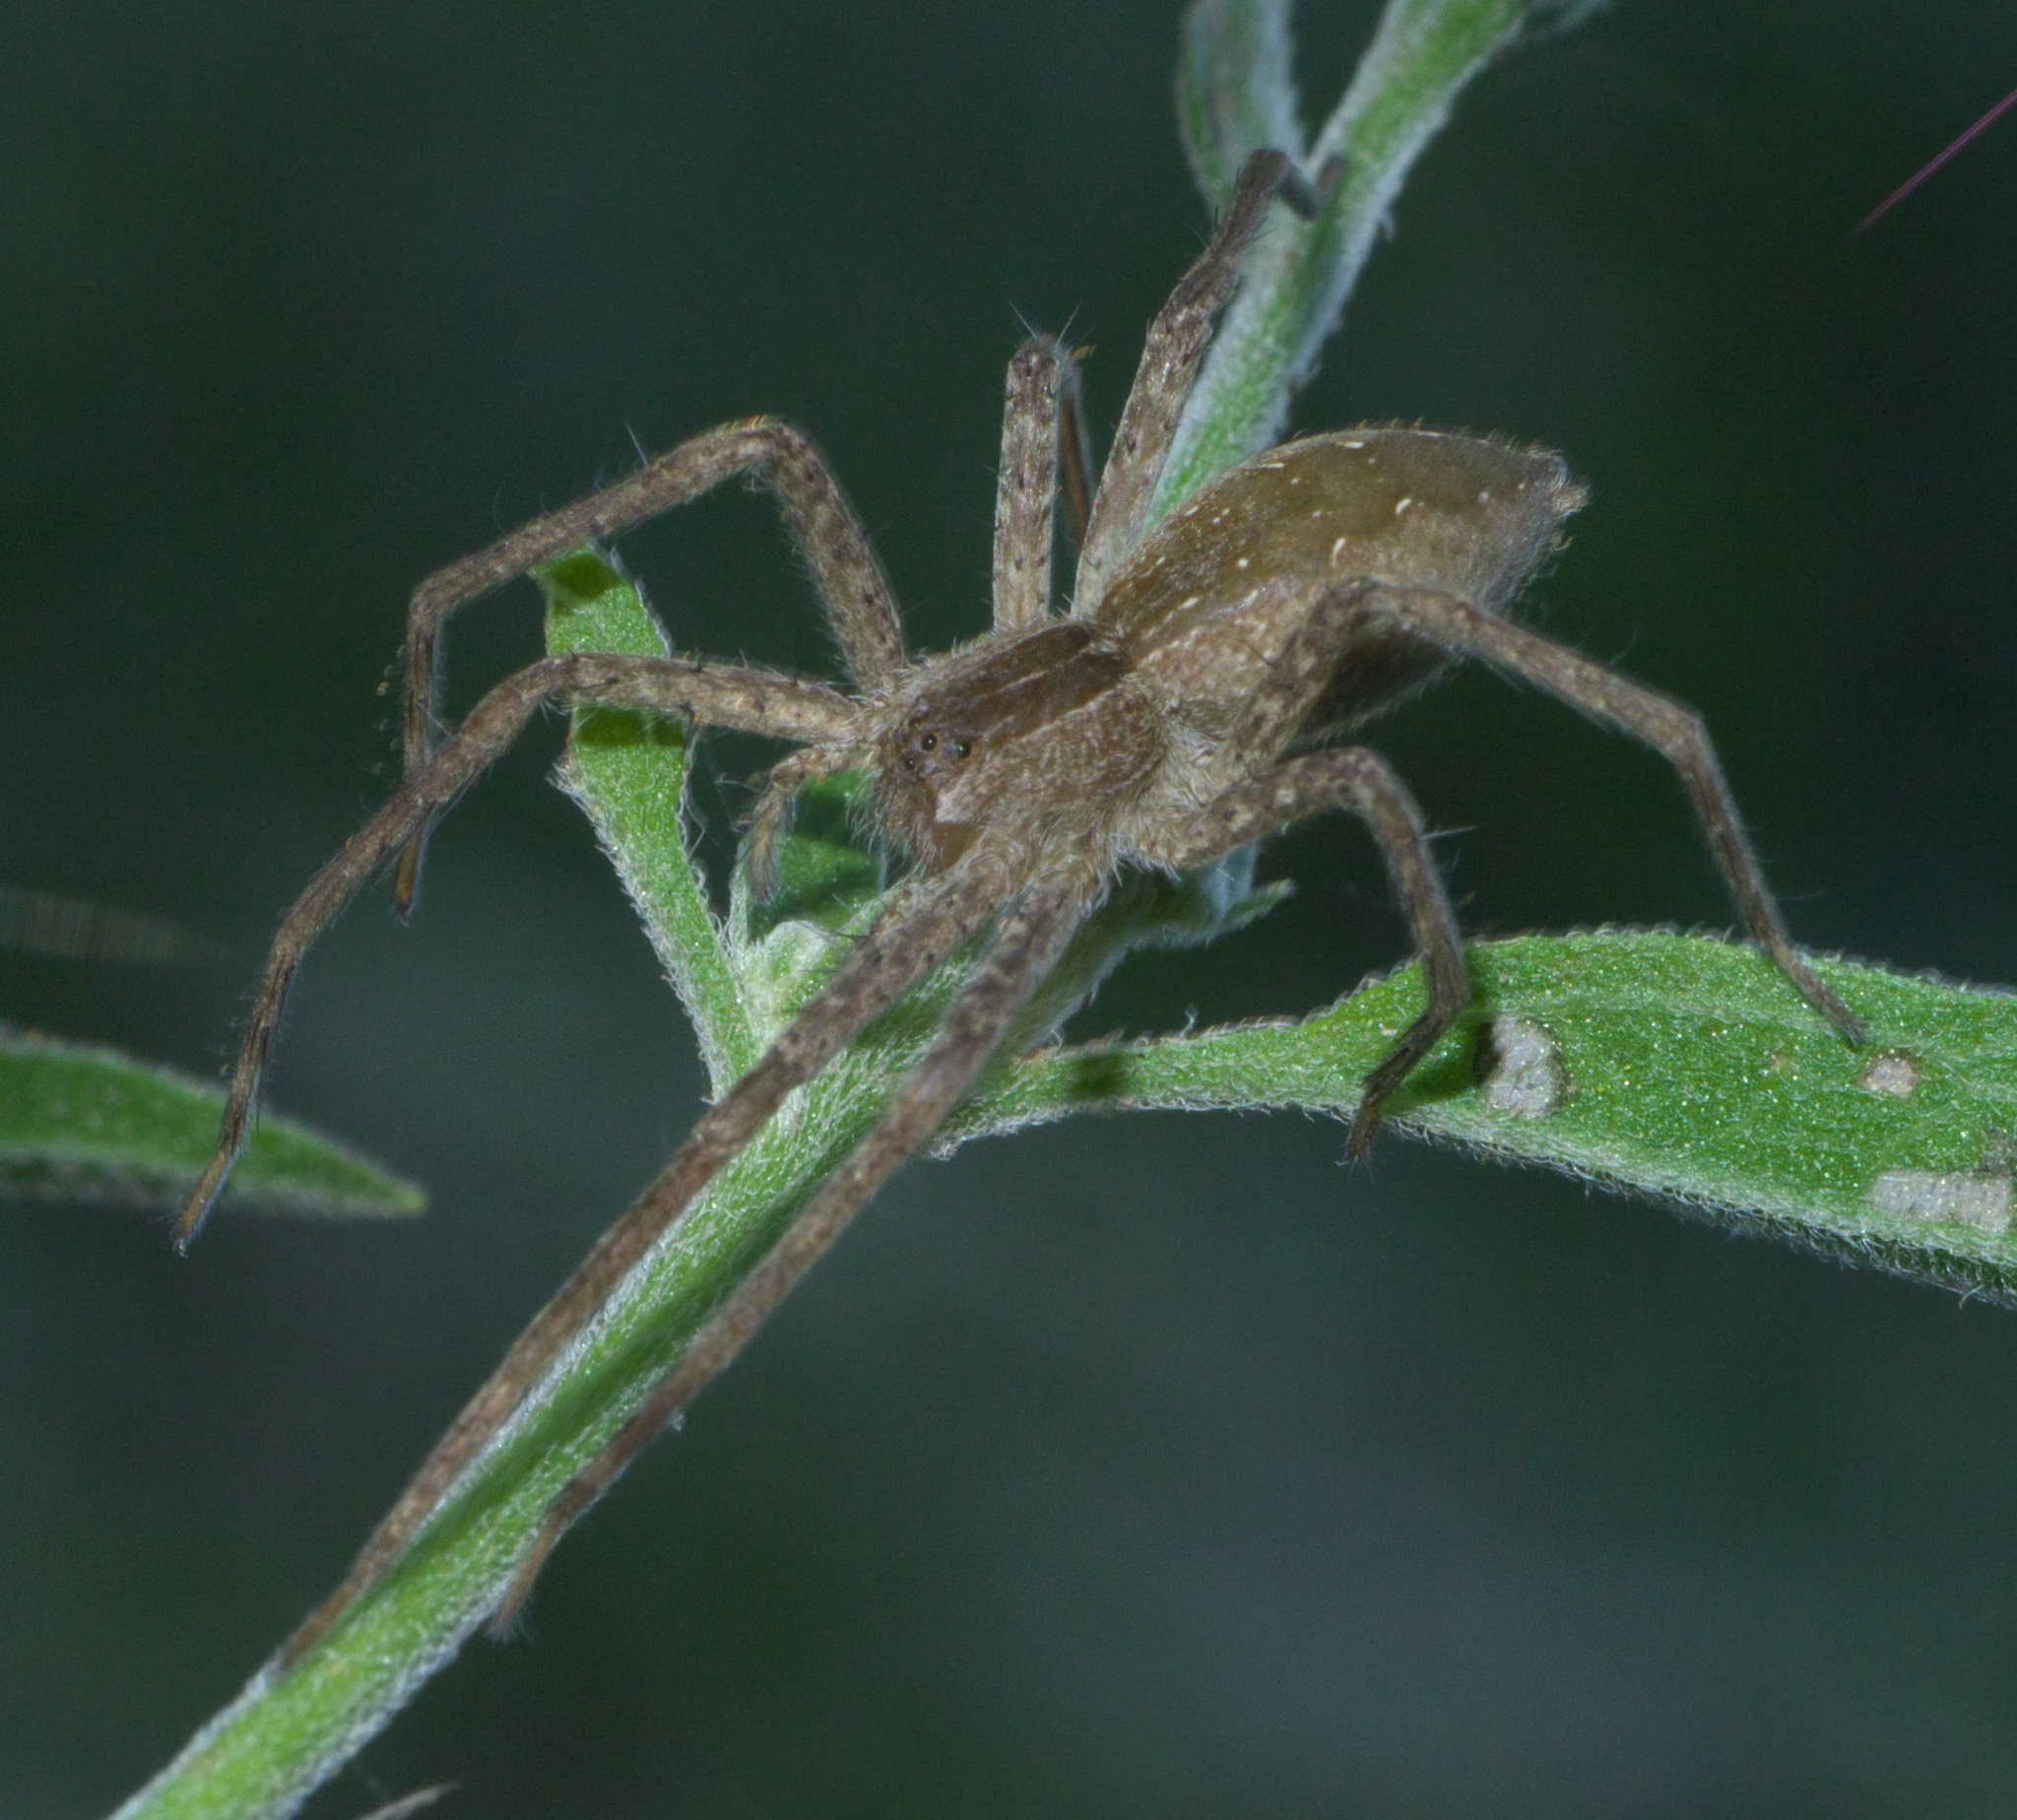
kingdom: Animalia
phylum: Arthropoda
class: Arachnida
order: Araneae
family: Pisauridae
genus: Pisaurina
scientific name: Pisaurina mira
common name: American nursery web spider
